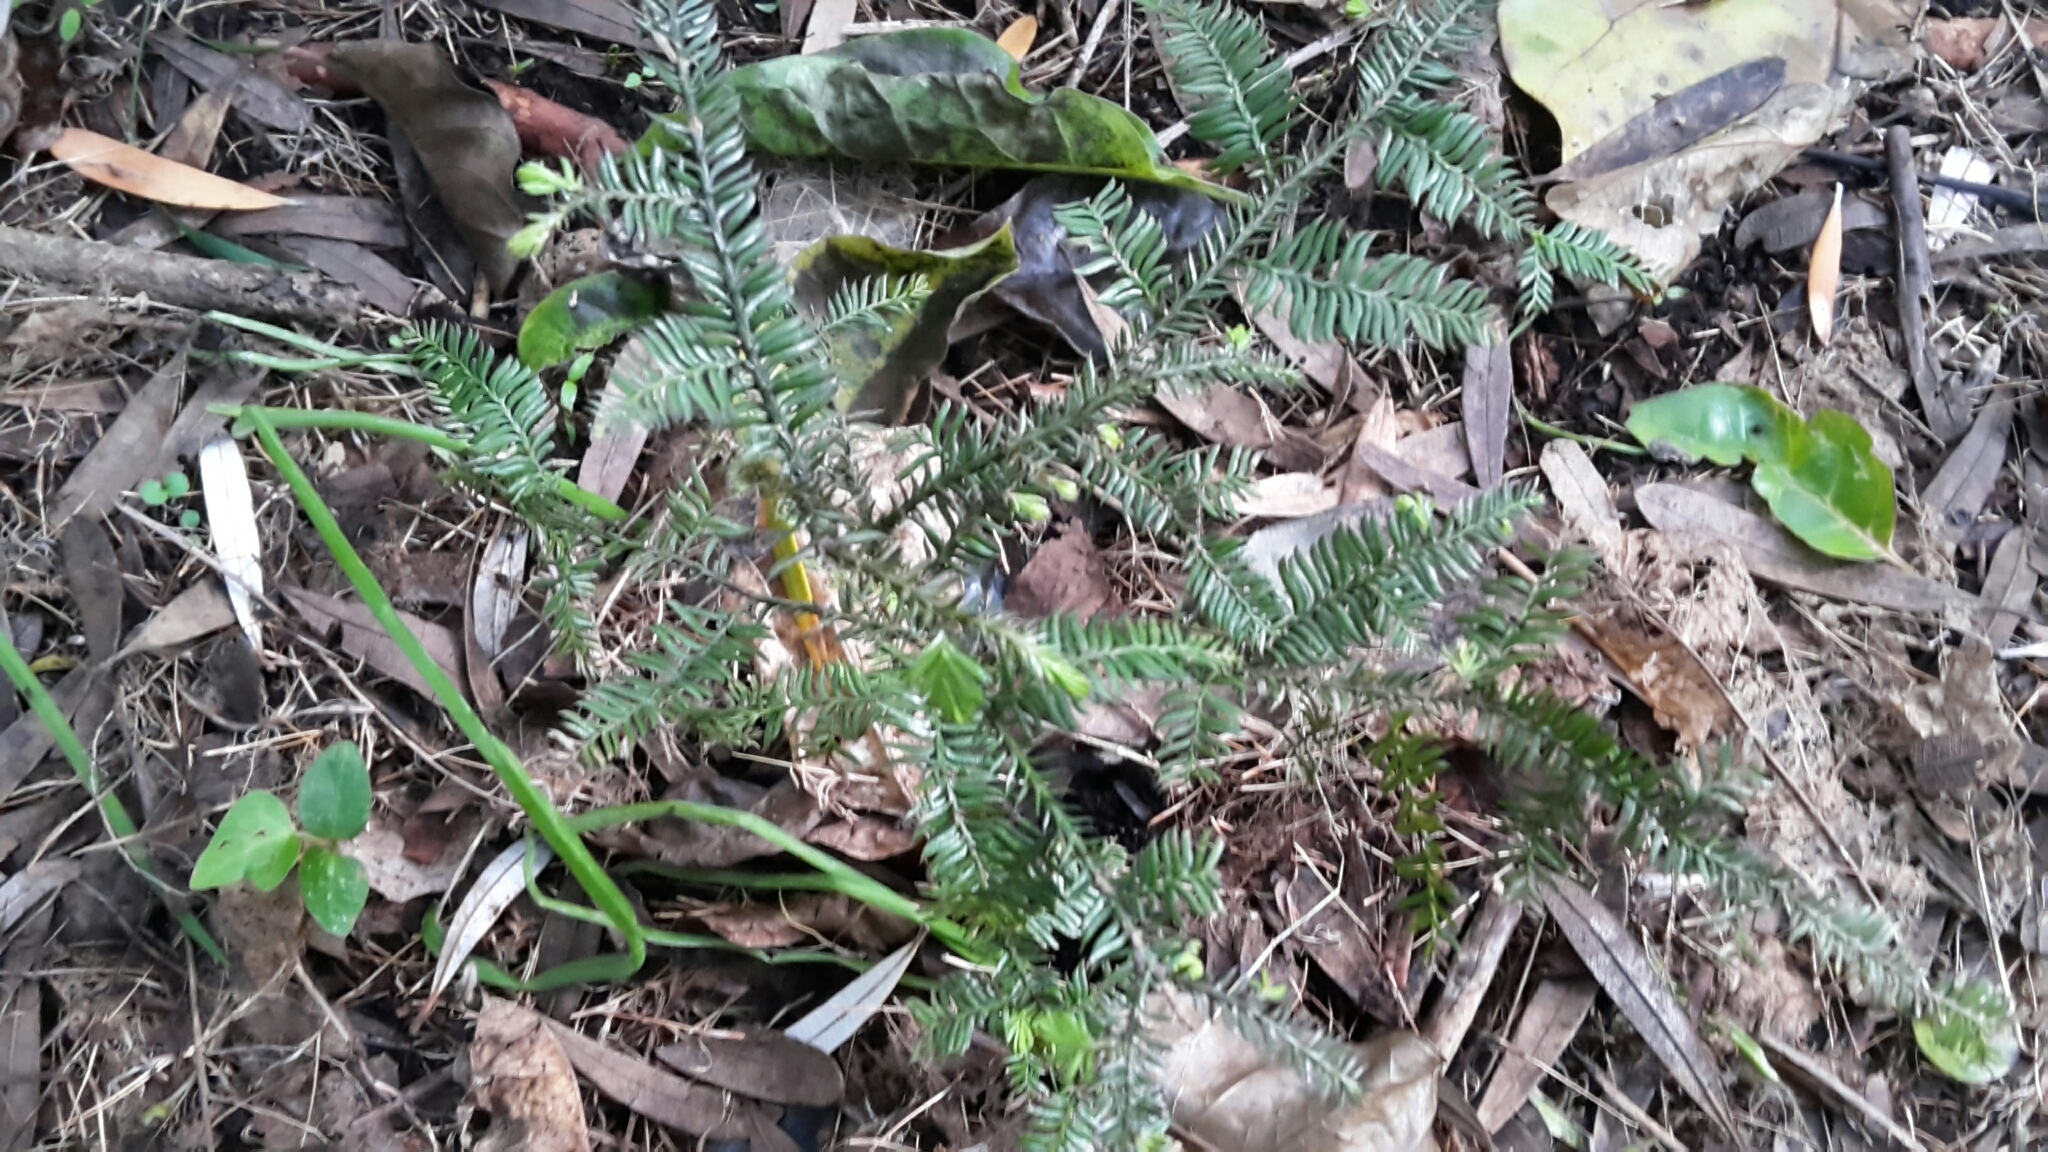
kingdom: Plantae
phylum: Tracheophyta
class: Pinopsida
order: Pinales
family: Podocarpaceae
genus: Dacrycarpus
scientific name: Dacrycarpus dacrydioides
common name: White pine
